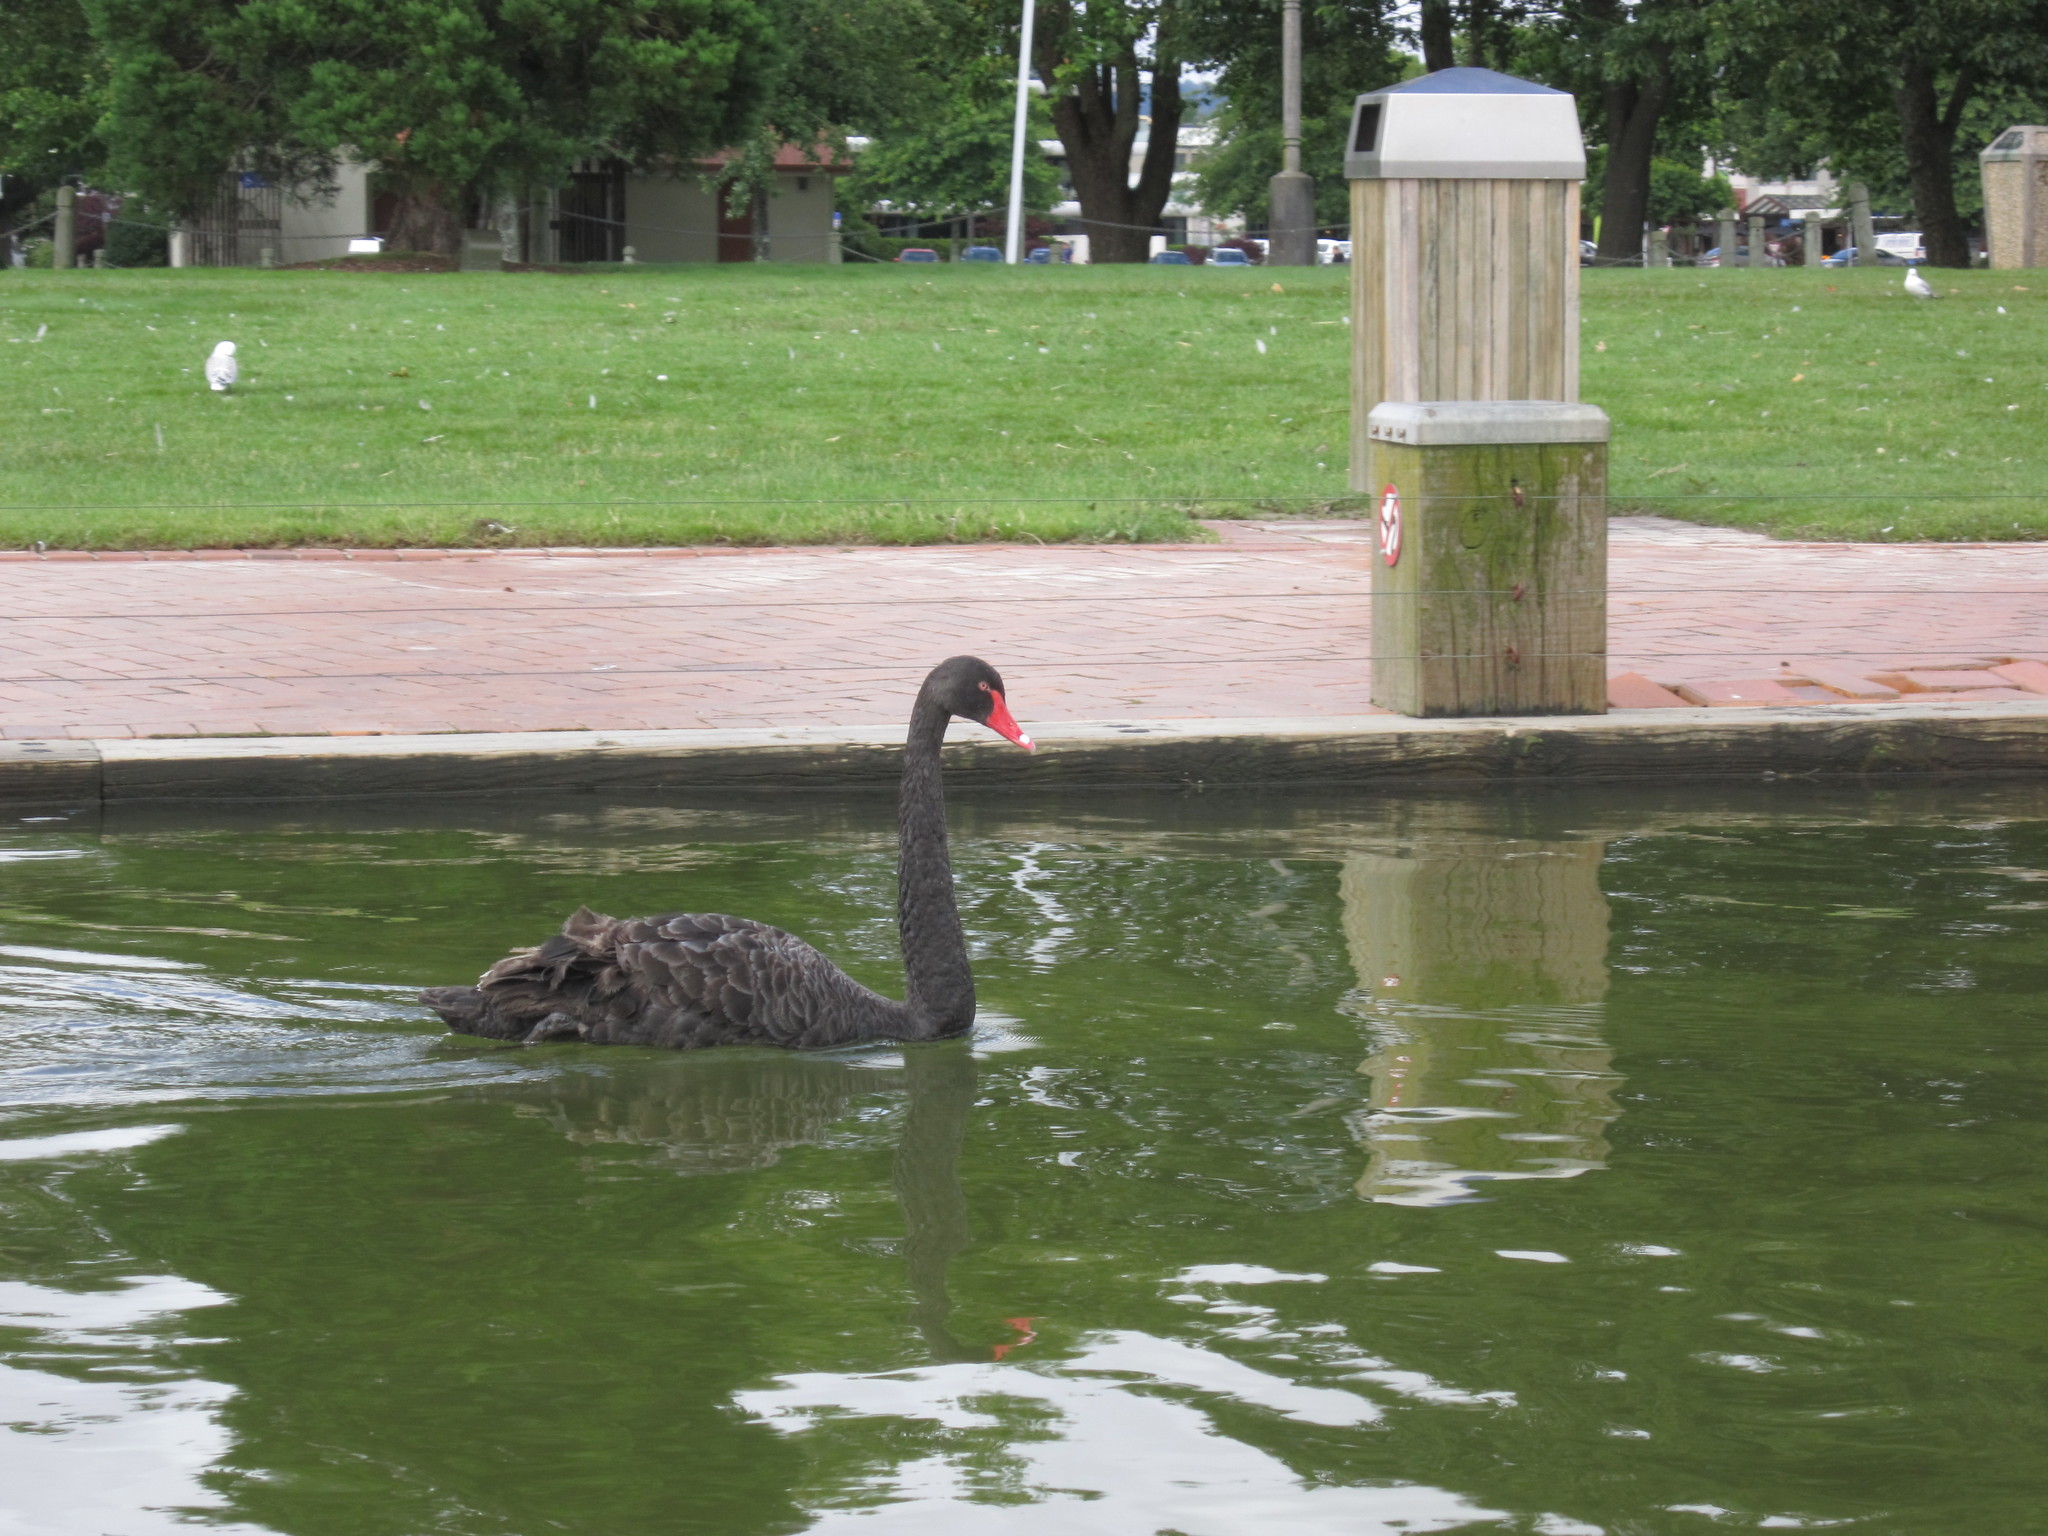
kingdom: Animalia
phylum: Chordata
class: Aves
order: Anseriformes
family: Anatidae
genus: Cygnus
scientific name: Cygnus atratus
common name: Black swan
